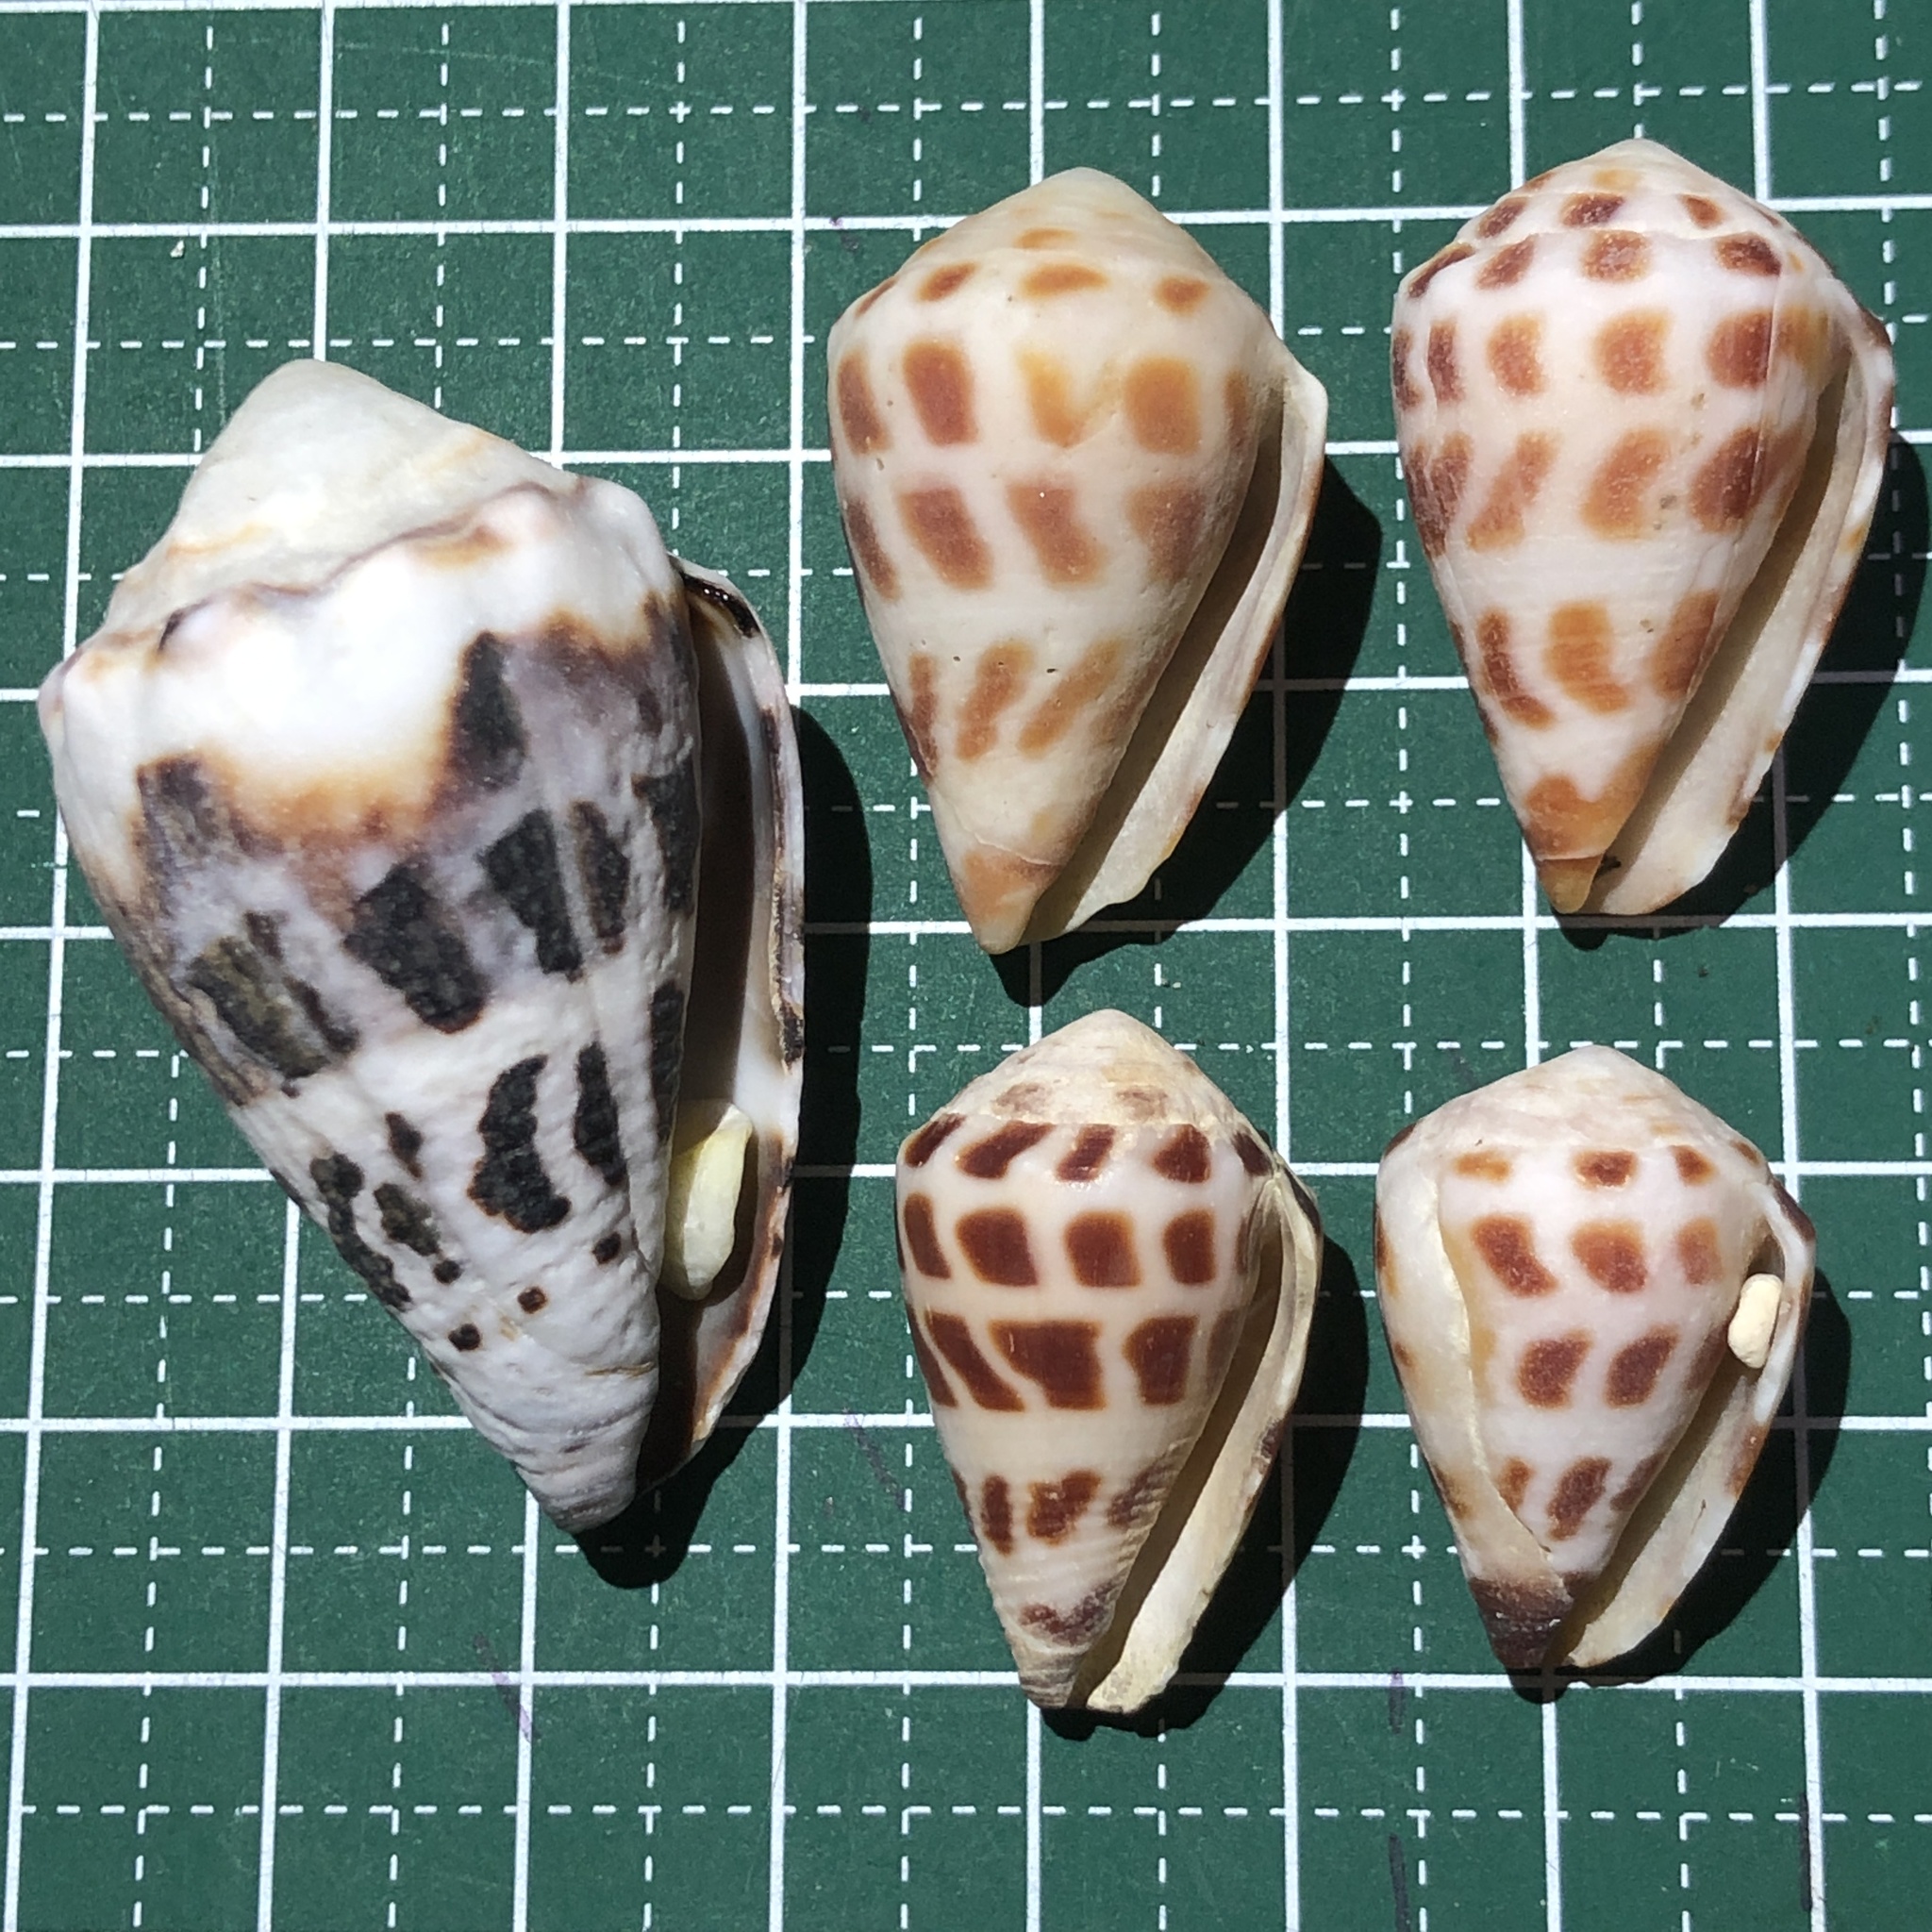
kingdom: Animalia
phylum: Mollusca
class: Gastropoda
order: Neogastropoda
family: Conidae
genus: Conus
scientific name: Conus ebraeus
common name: Hebrew cone
